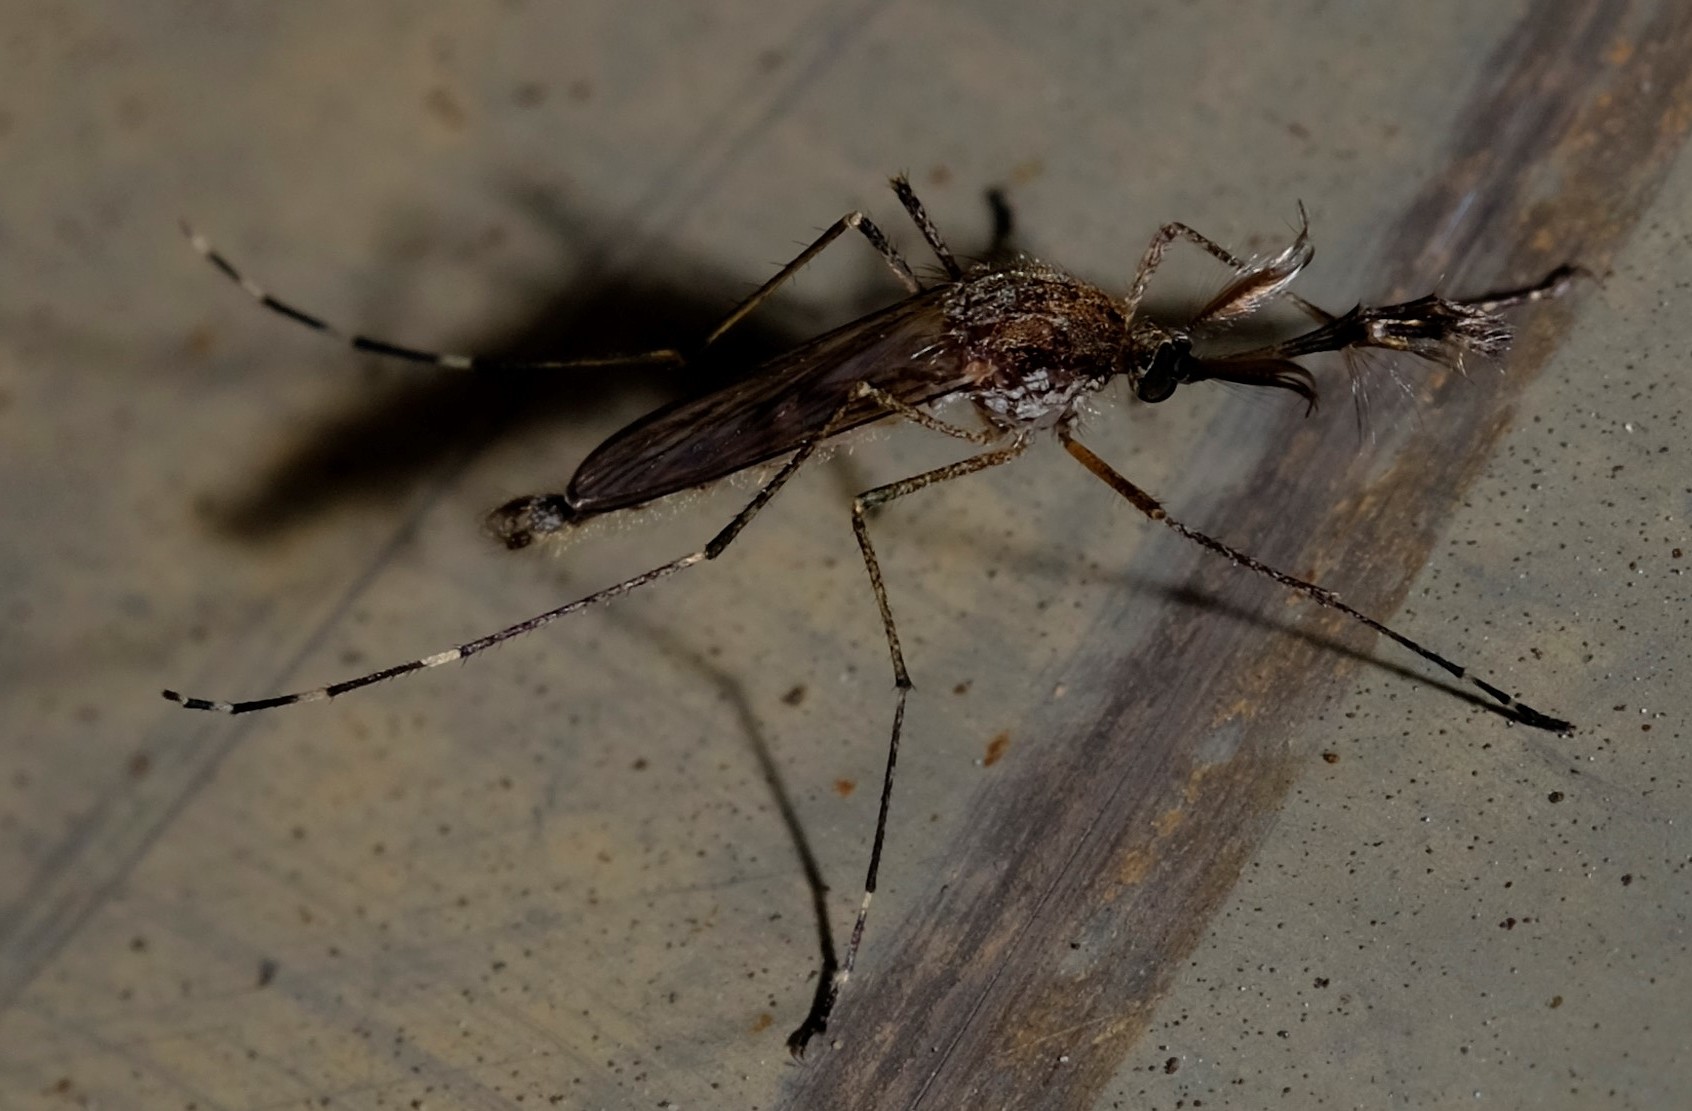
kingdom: Animalia
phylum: Arthropoda
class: Insecta
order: Diptera
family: Culicidae
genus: Aedes
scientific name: Aedes camptorhynchus
